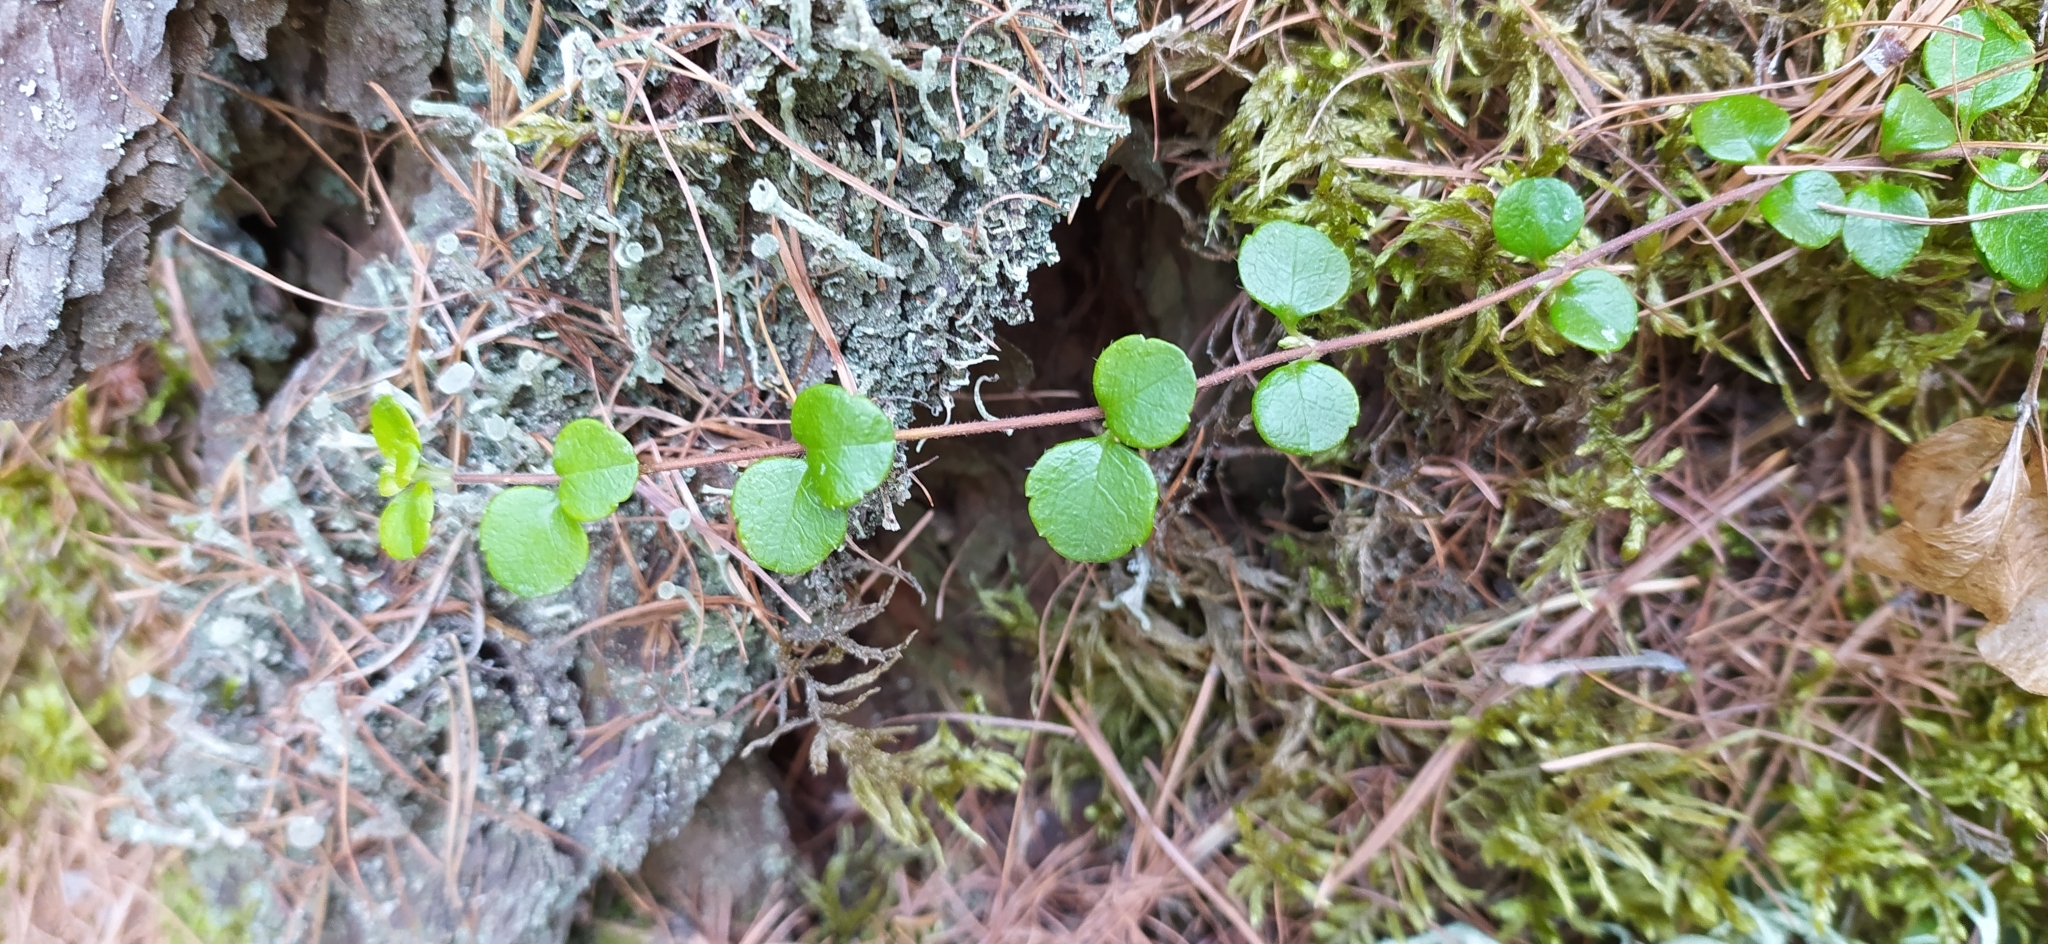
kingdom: Plantae
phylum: Tracheophyta
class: Magnoliopsida
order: Dipsacales
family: Caprifoliaceae
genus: Linnaea
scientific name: Linnaea borealis
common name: Twinflower
